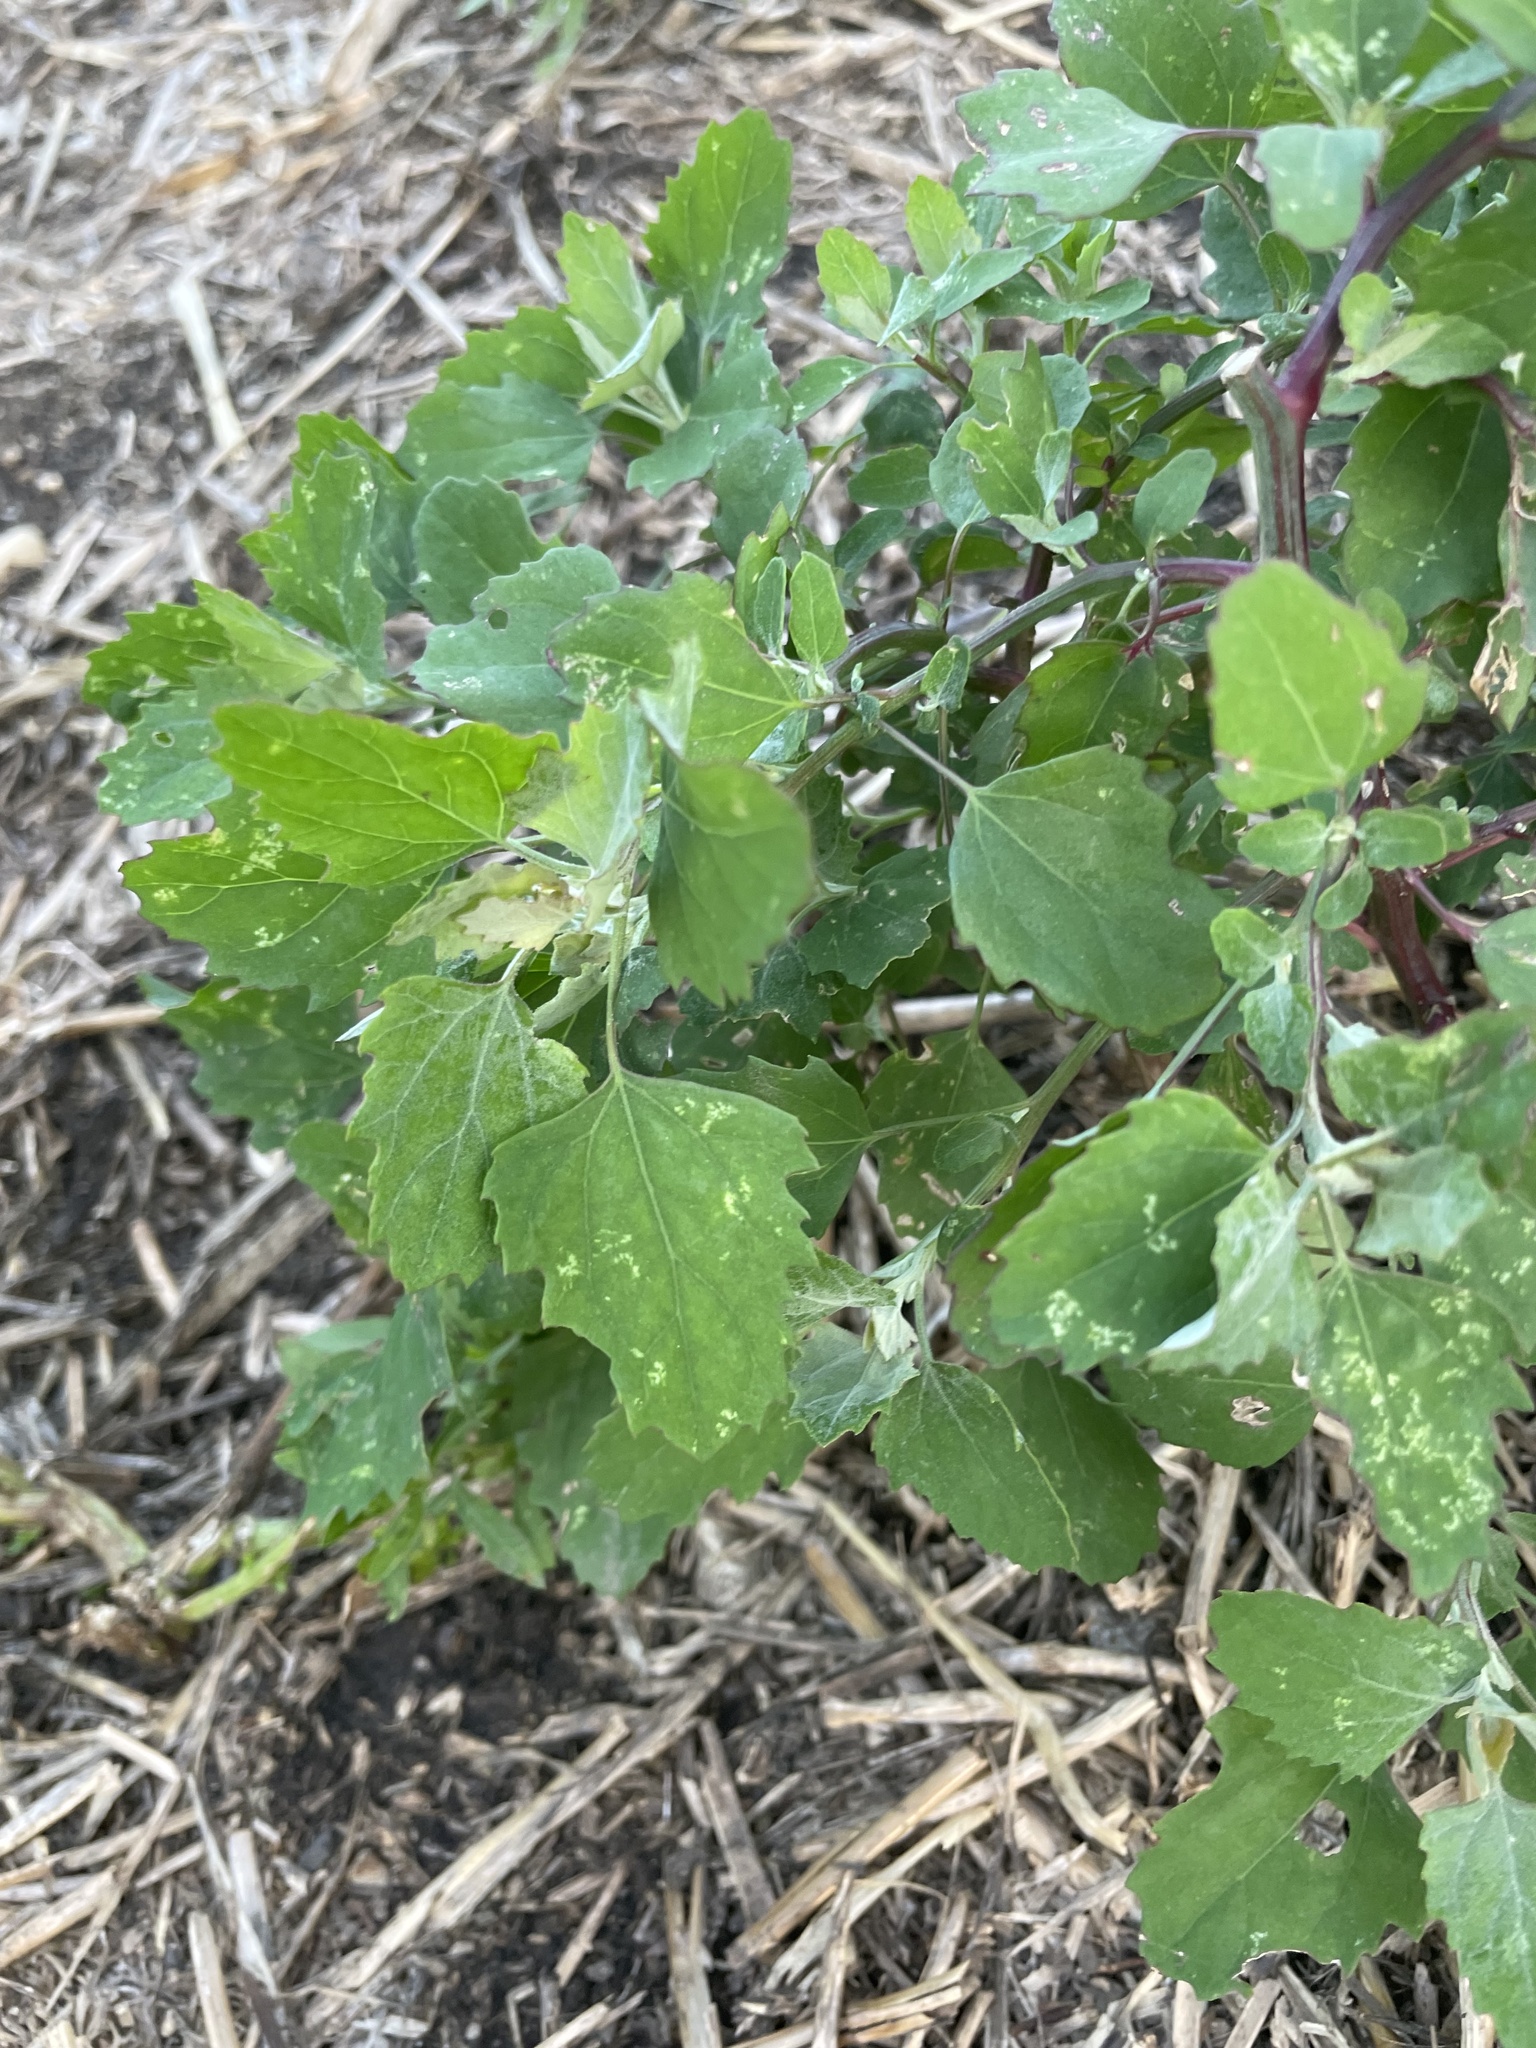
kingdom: Plantae
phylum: Tracheophyta
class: Magnoliopsida
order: Caryophyllales
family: Amaranthaceae
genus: Chenopodium
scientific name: Chenopodium album
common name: Fat-hen
